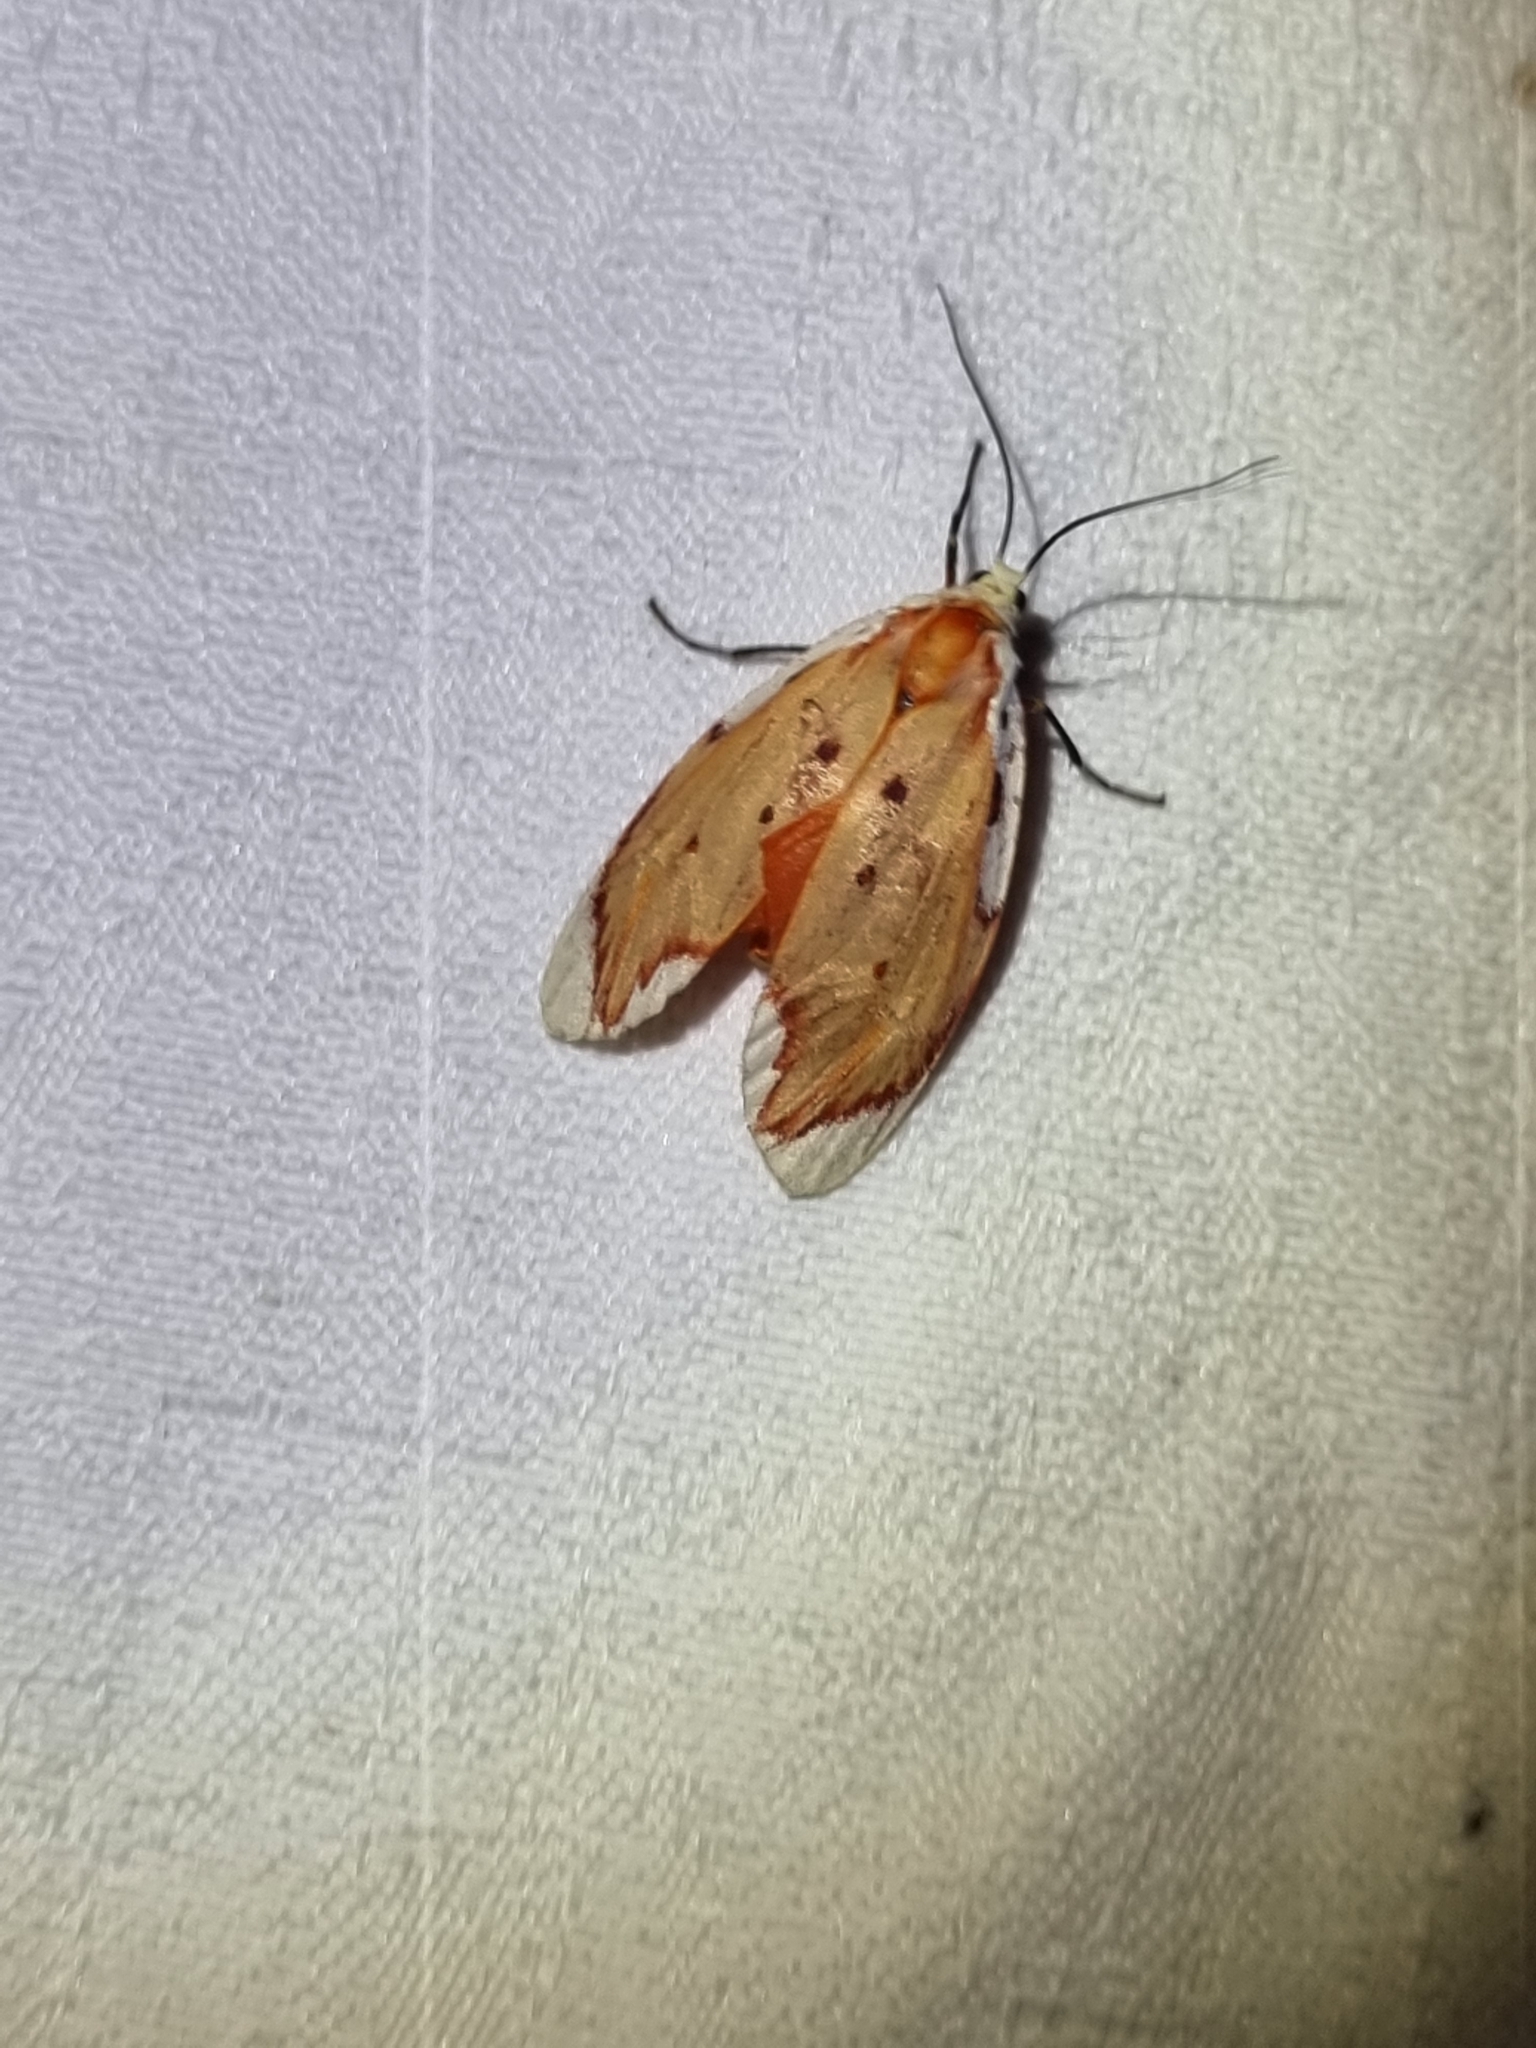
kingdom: Animalia
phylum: Arthropoda
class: Insecta
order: Lepidoptera
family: Lacturidae
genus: Lactura
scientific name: Lactura sapotearum
